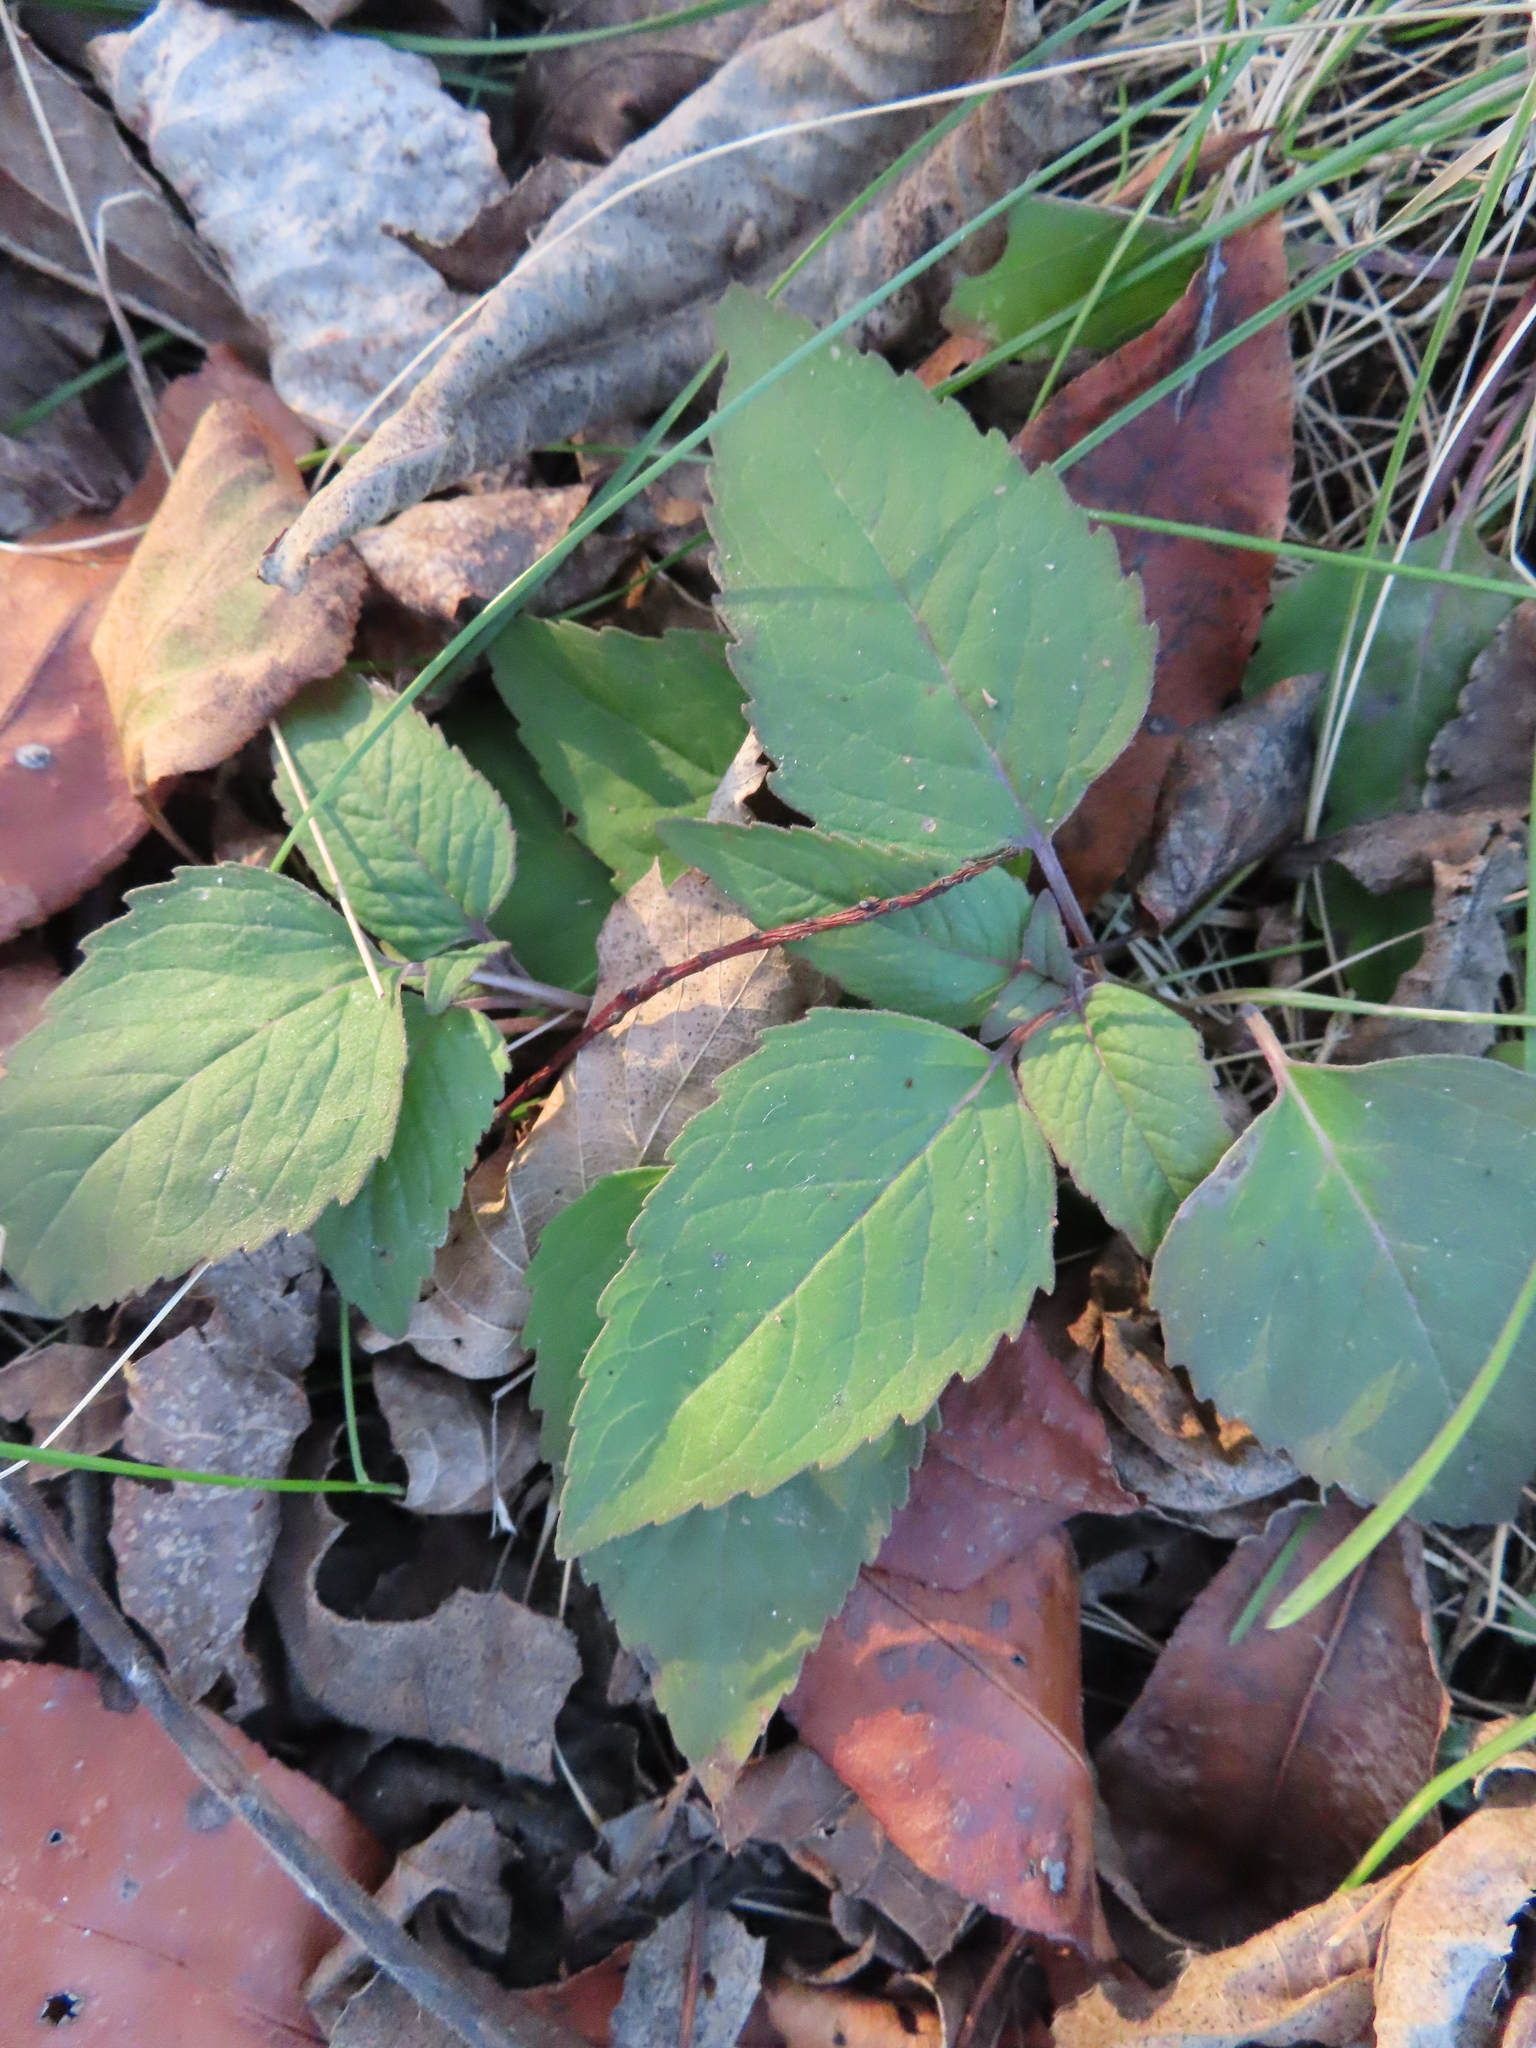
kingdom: Plantae
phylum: Tracheophyta
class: Magnoliopsida
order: Lamiales
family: Lamiaceae
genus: Monarda
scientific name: Monarda fistulosa
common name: Purple beebalm
